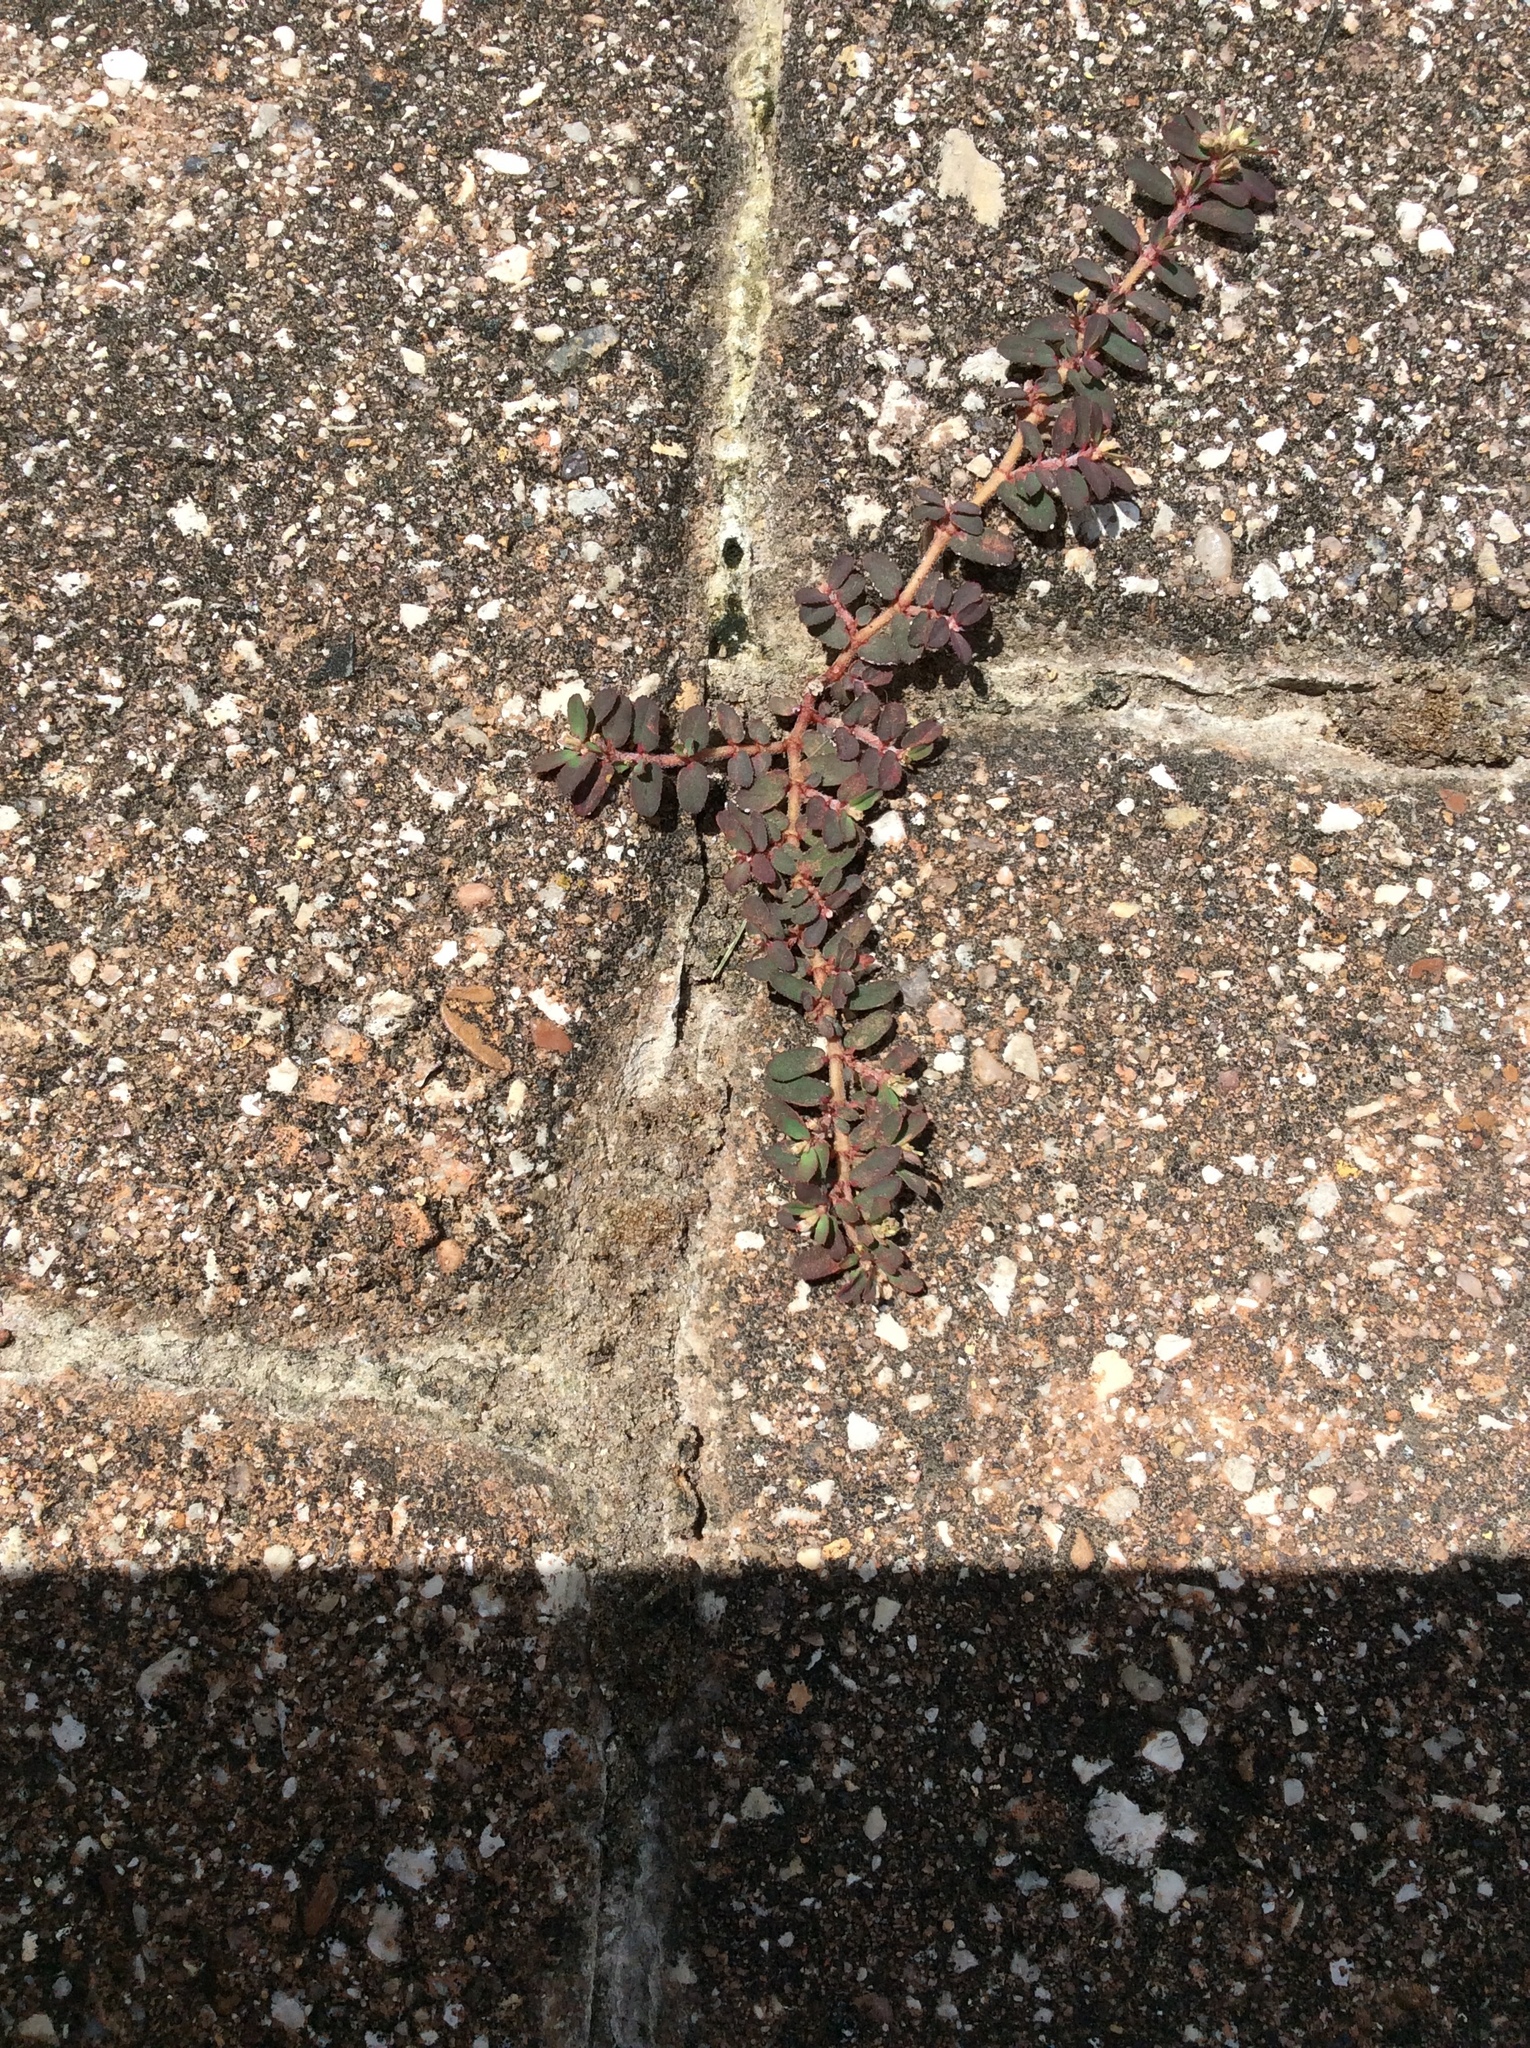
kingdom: Plantae
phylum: Tracheophyta
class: Magnoliopsida
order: Malpighiales
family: Euphorbiaceae
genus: Euphorbia
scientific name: Euphorbia maculata
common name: Spotted spurge
